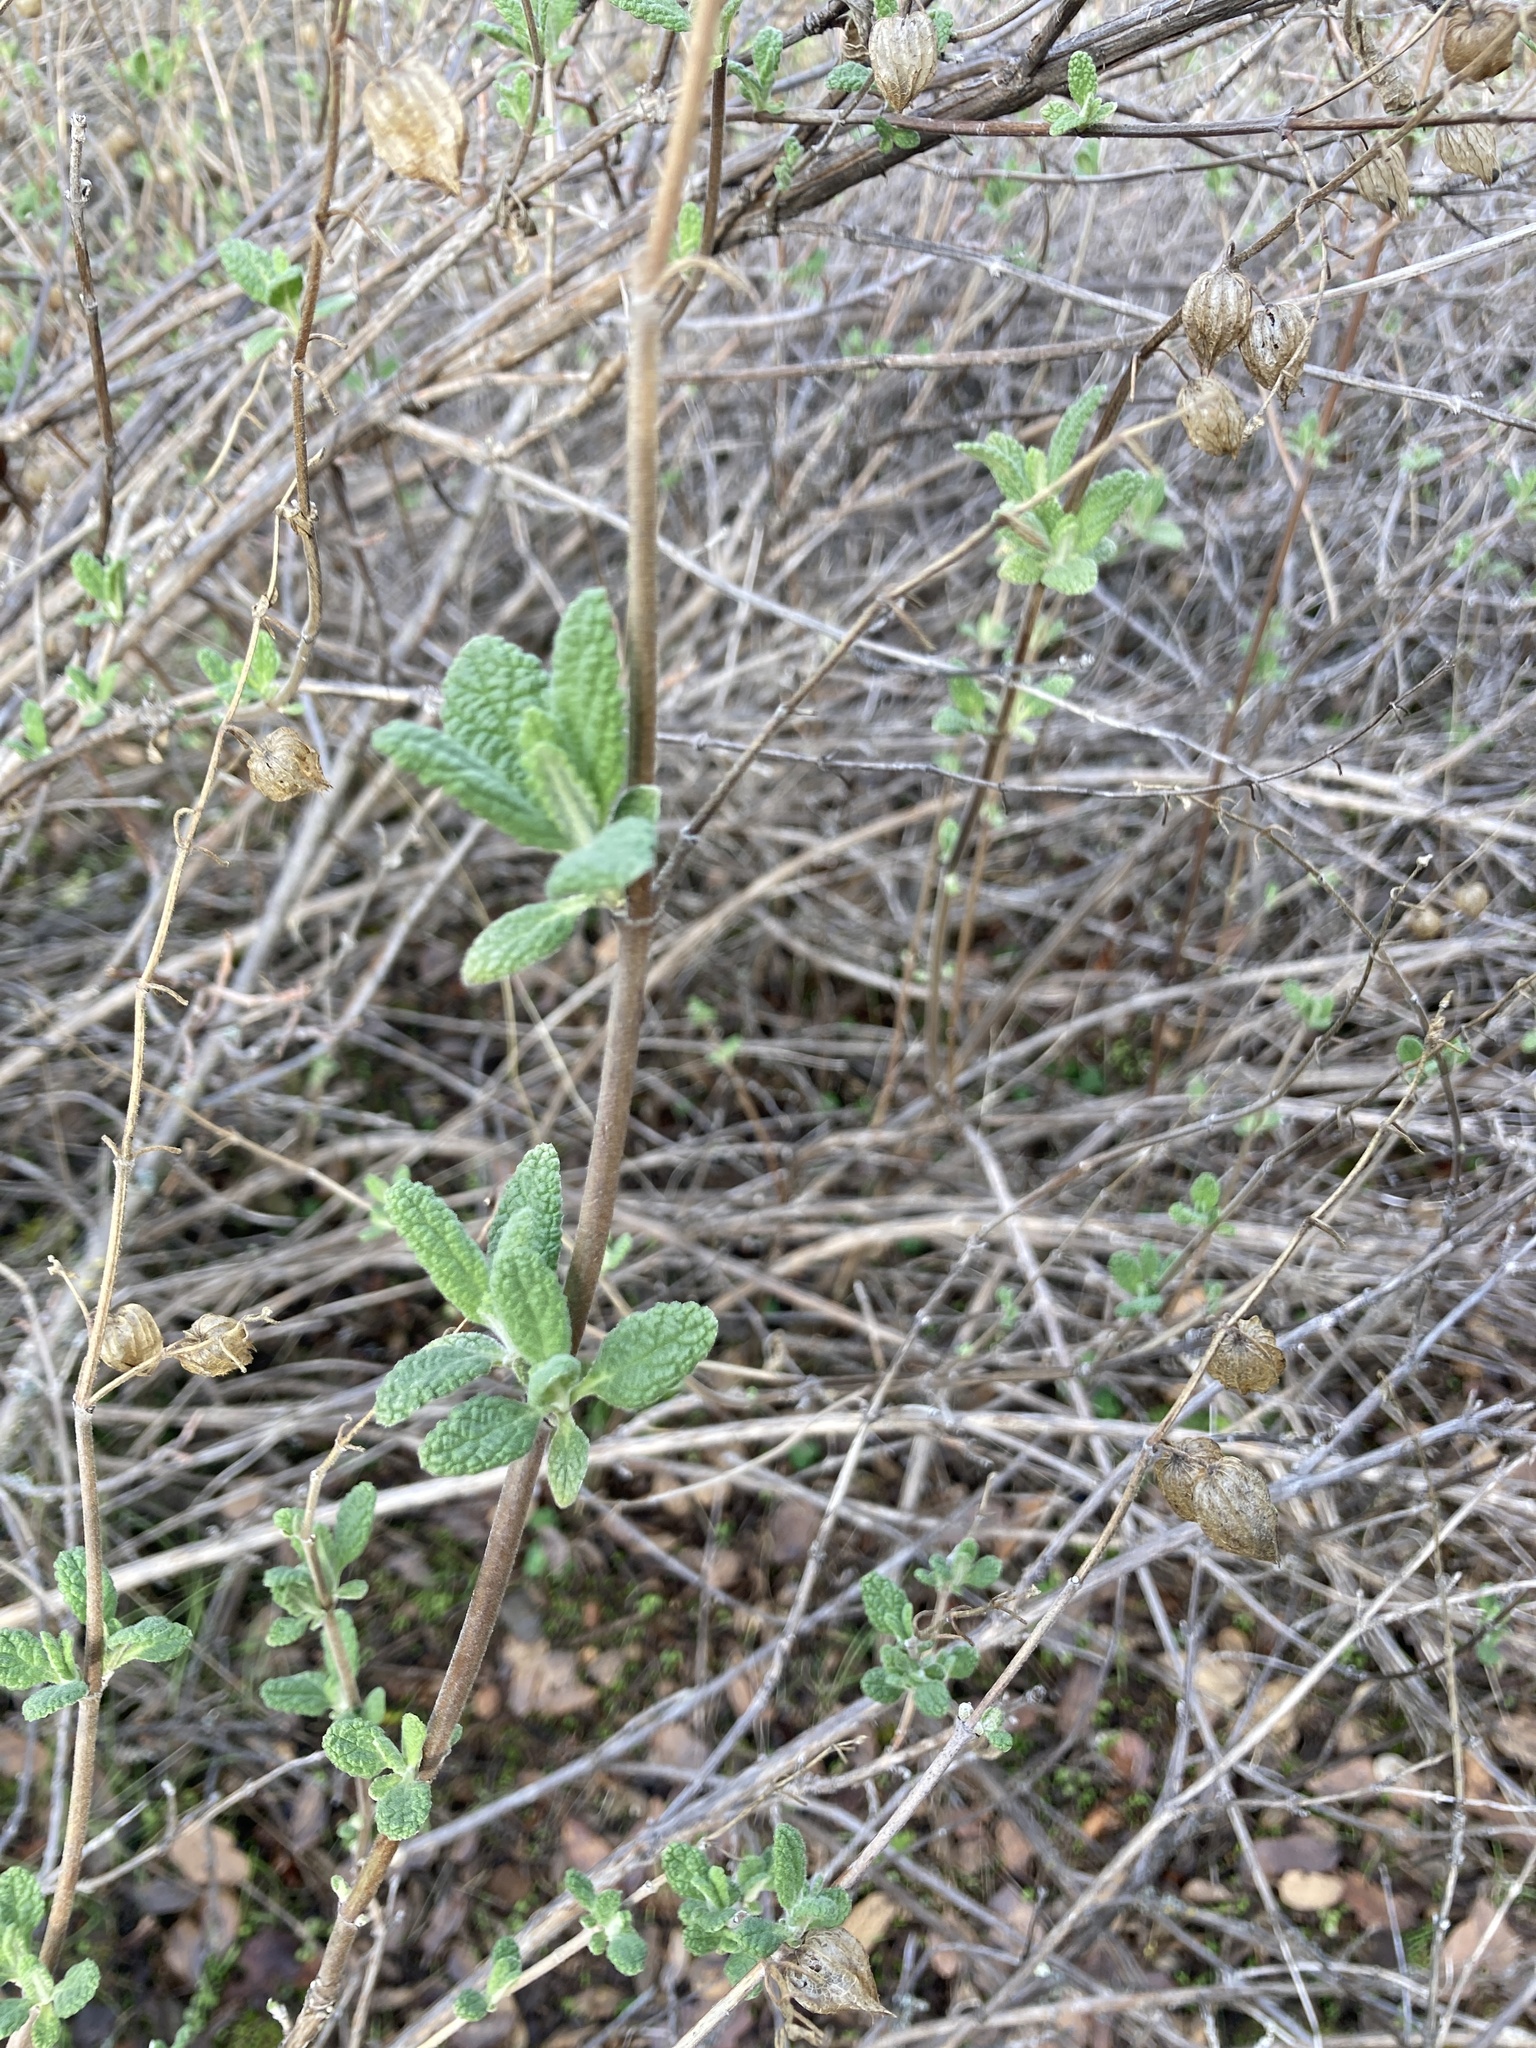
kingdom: Plantae
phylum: Tracheophyta
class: Magnoliopsida
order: Lamiales
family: Lamiaceae
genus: Lepechinia
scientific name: Lepechinia calycina
